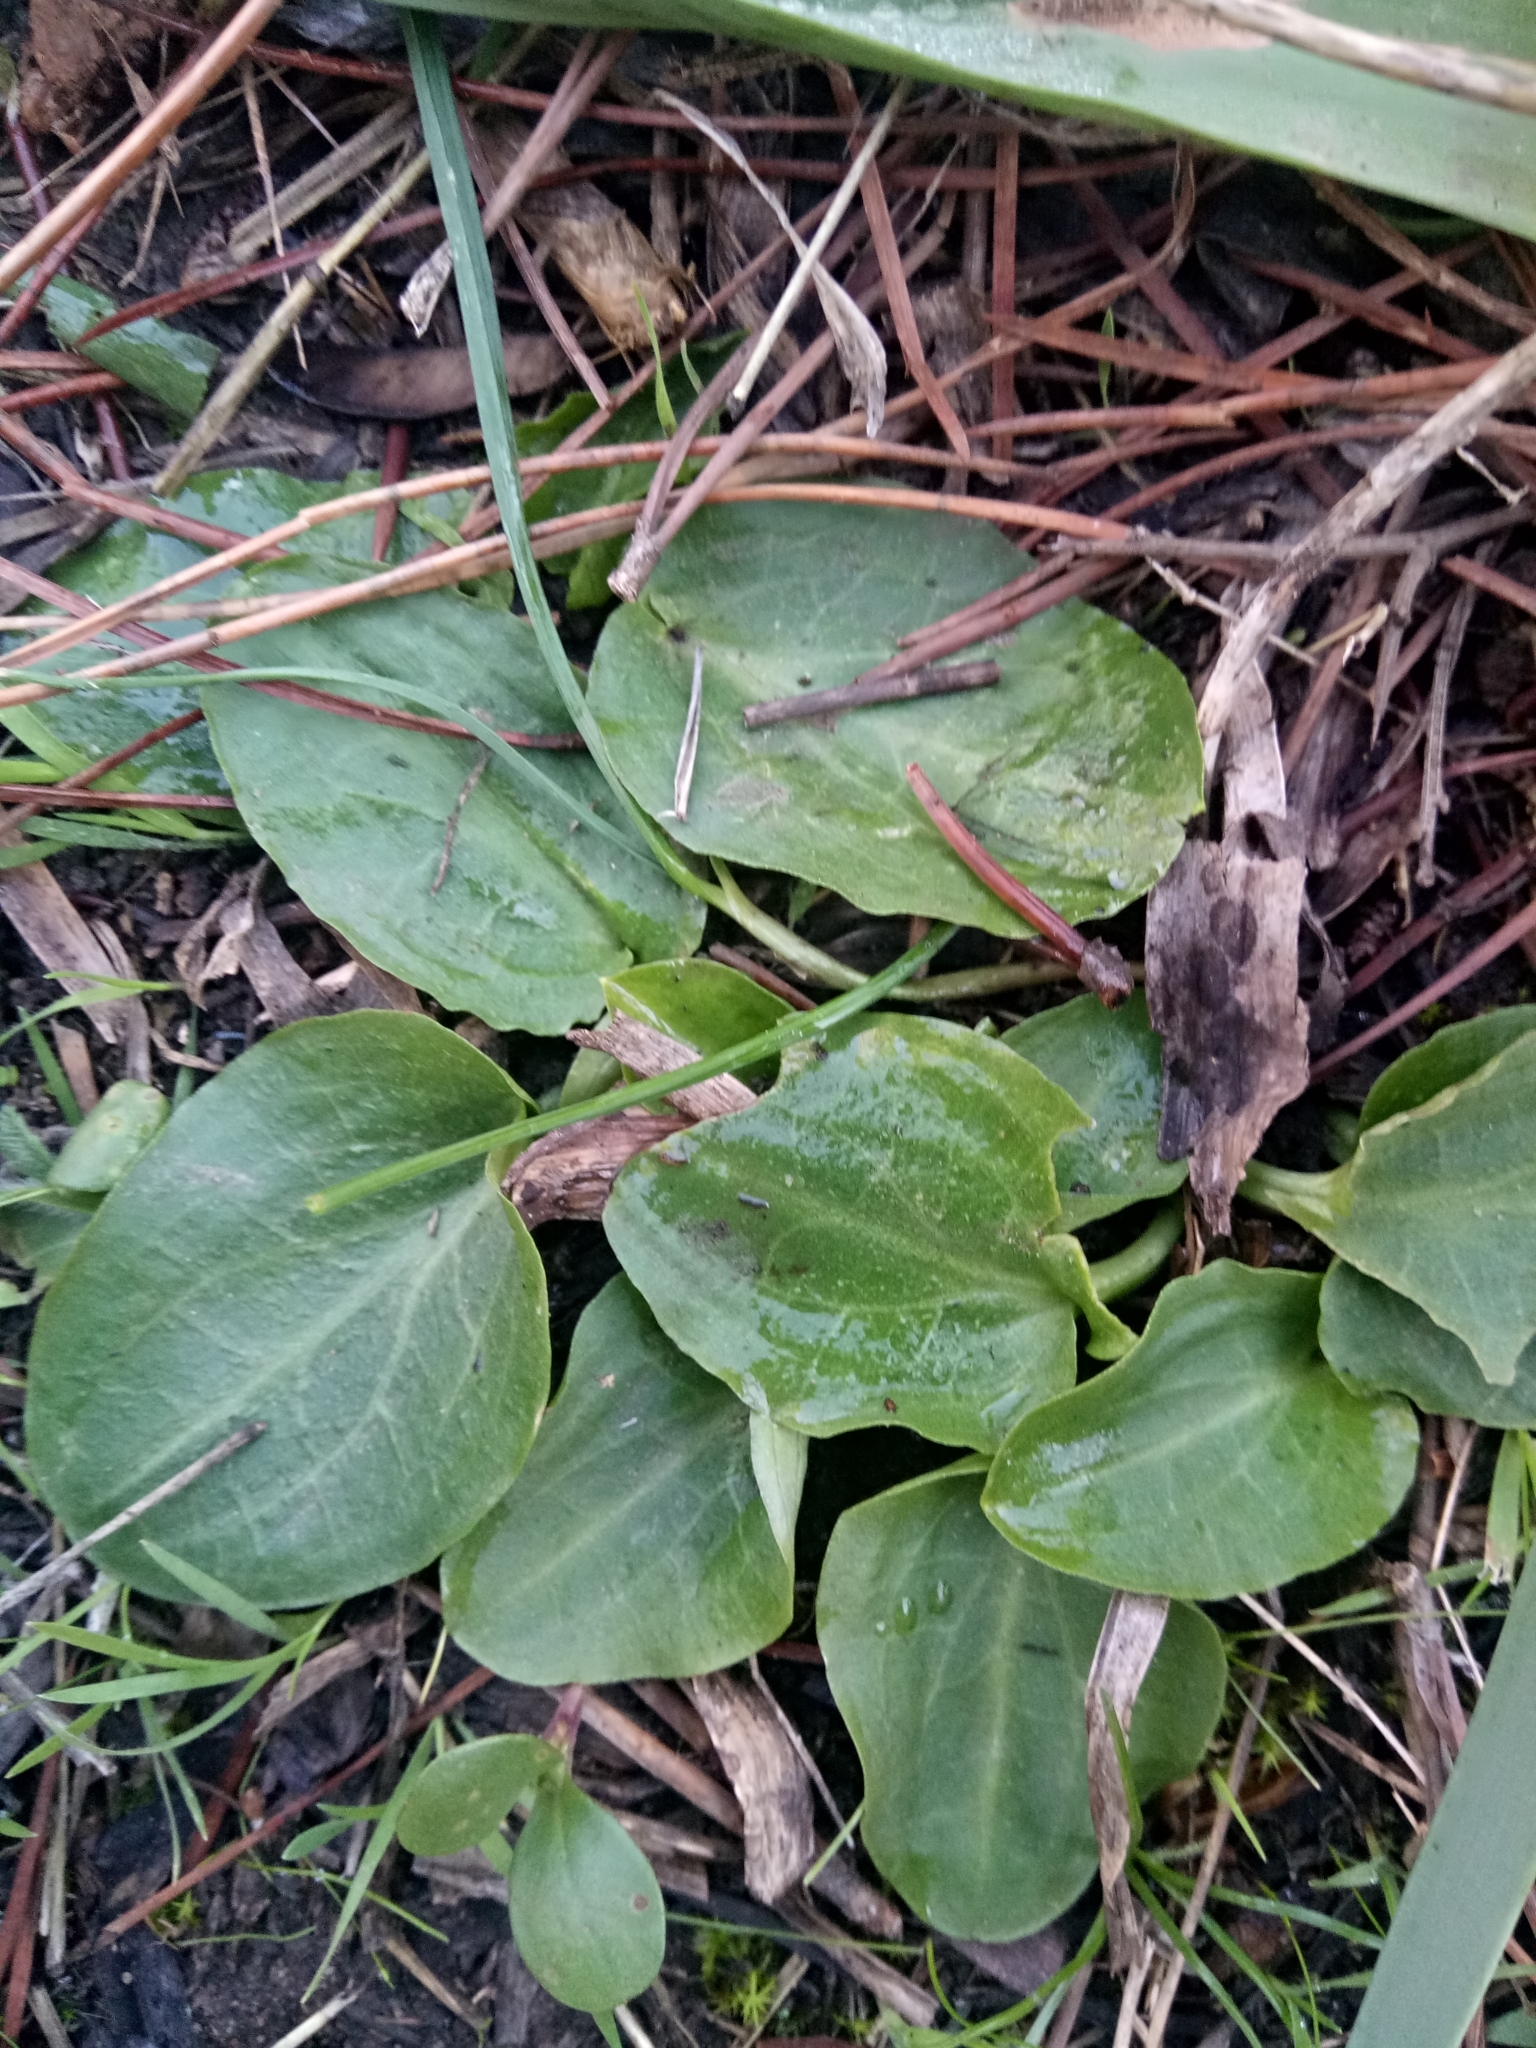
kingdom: Plantae
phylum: Tracheophyta
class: Liliopsida
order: Alismatales
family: Araceae
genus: Ambrosina
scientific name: Ambrosina bassii
